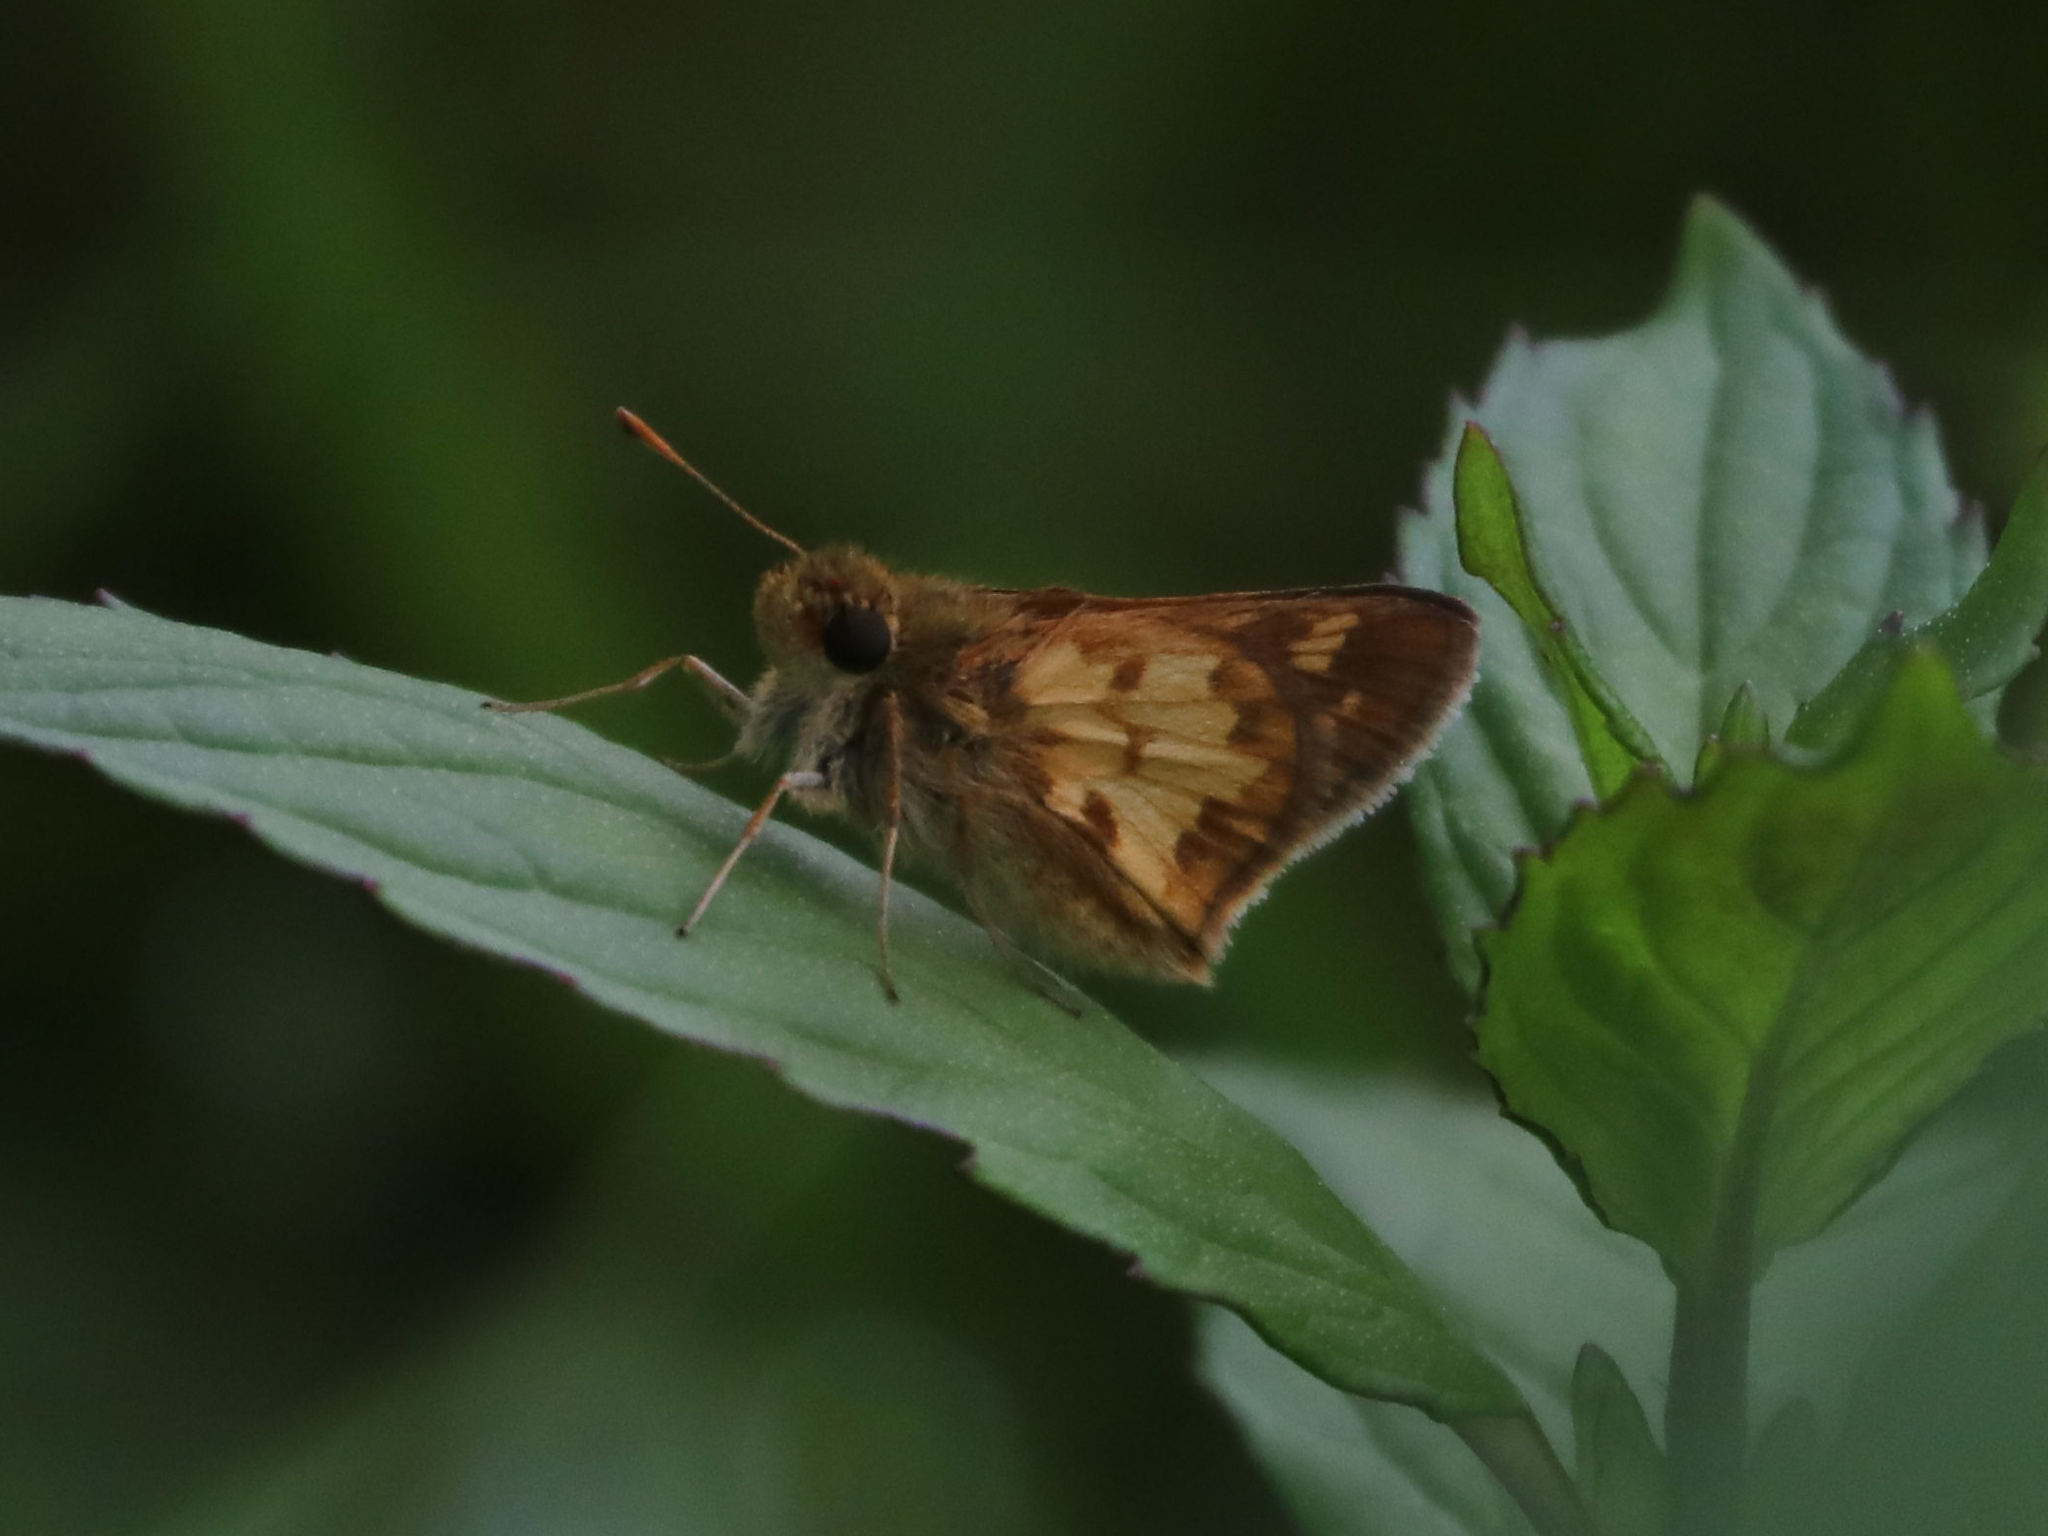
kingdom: Animalia
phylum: Arthropoda
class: Insecta
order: Lepidoptera
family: Hesperiidae
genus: Polites
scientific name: Polites coras
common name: Peck's skipper
